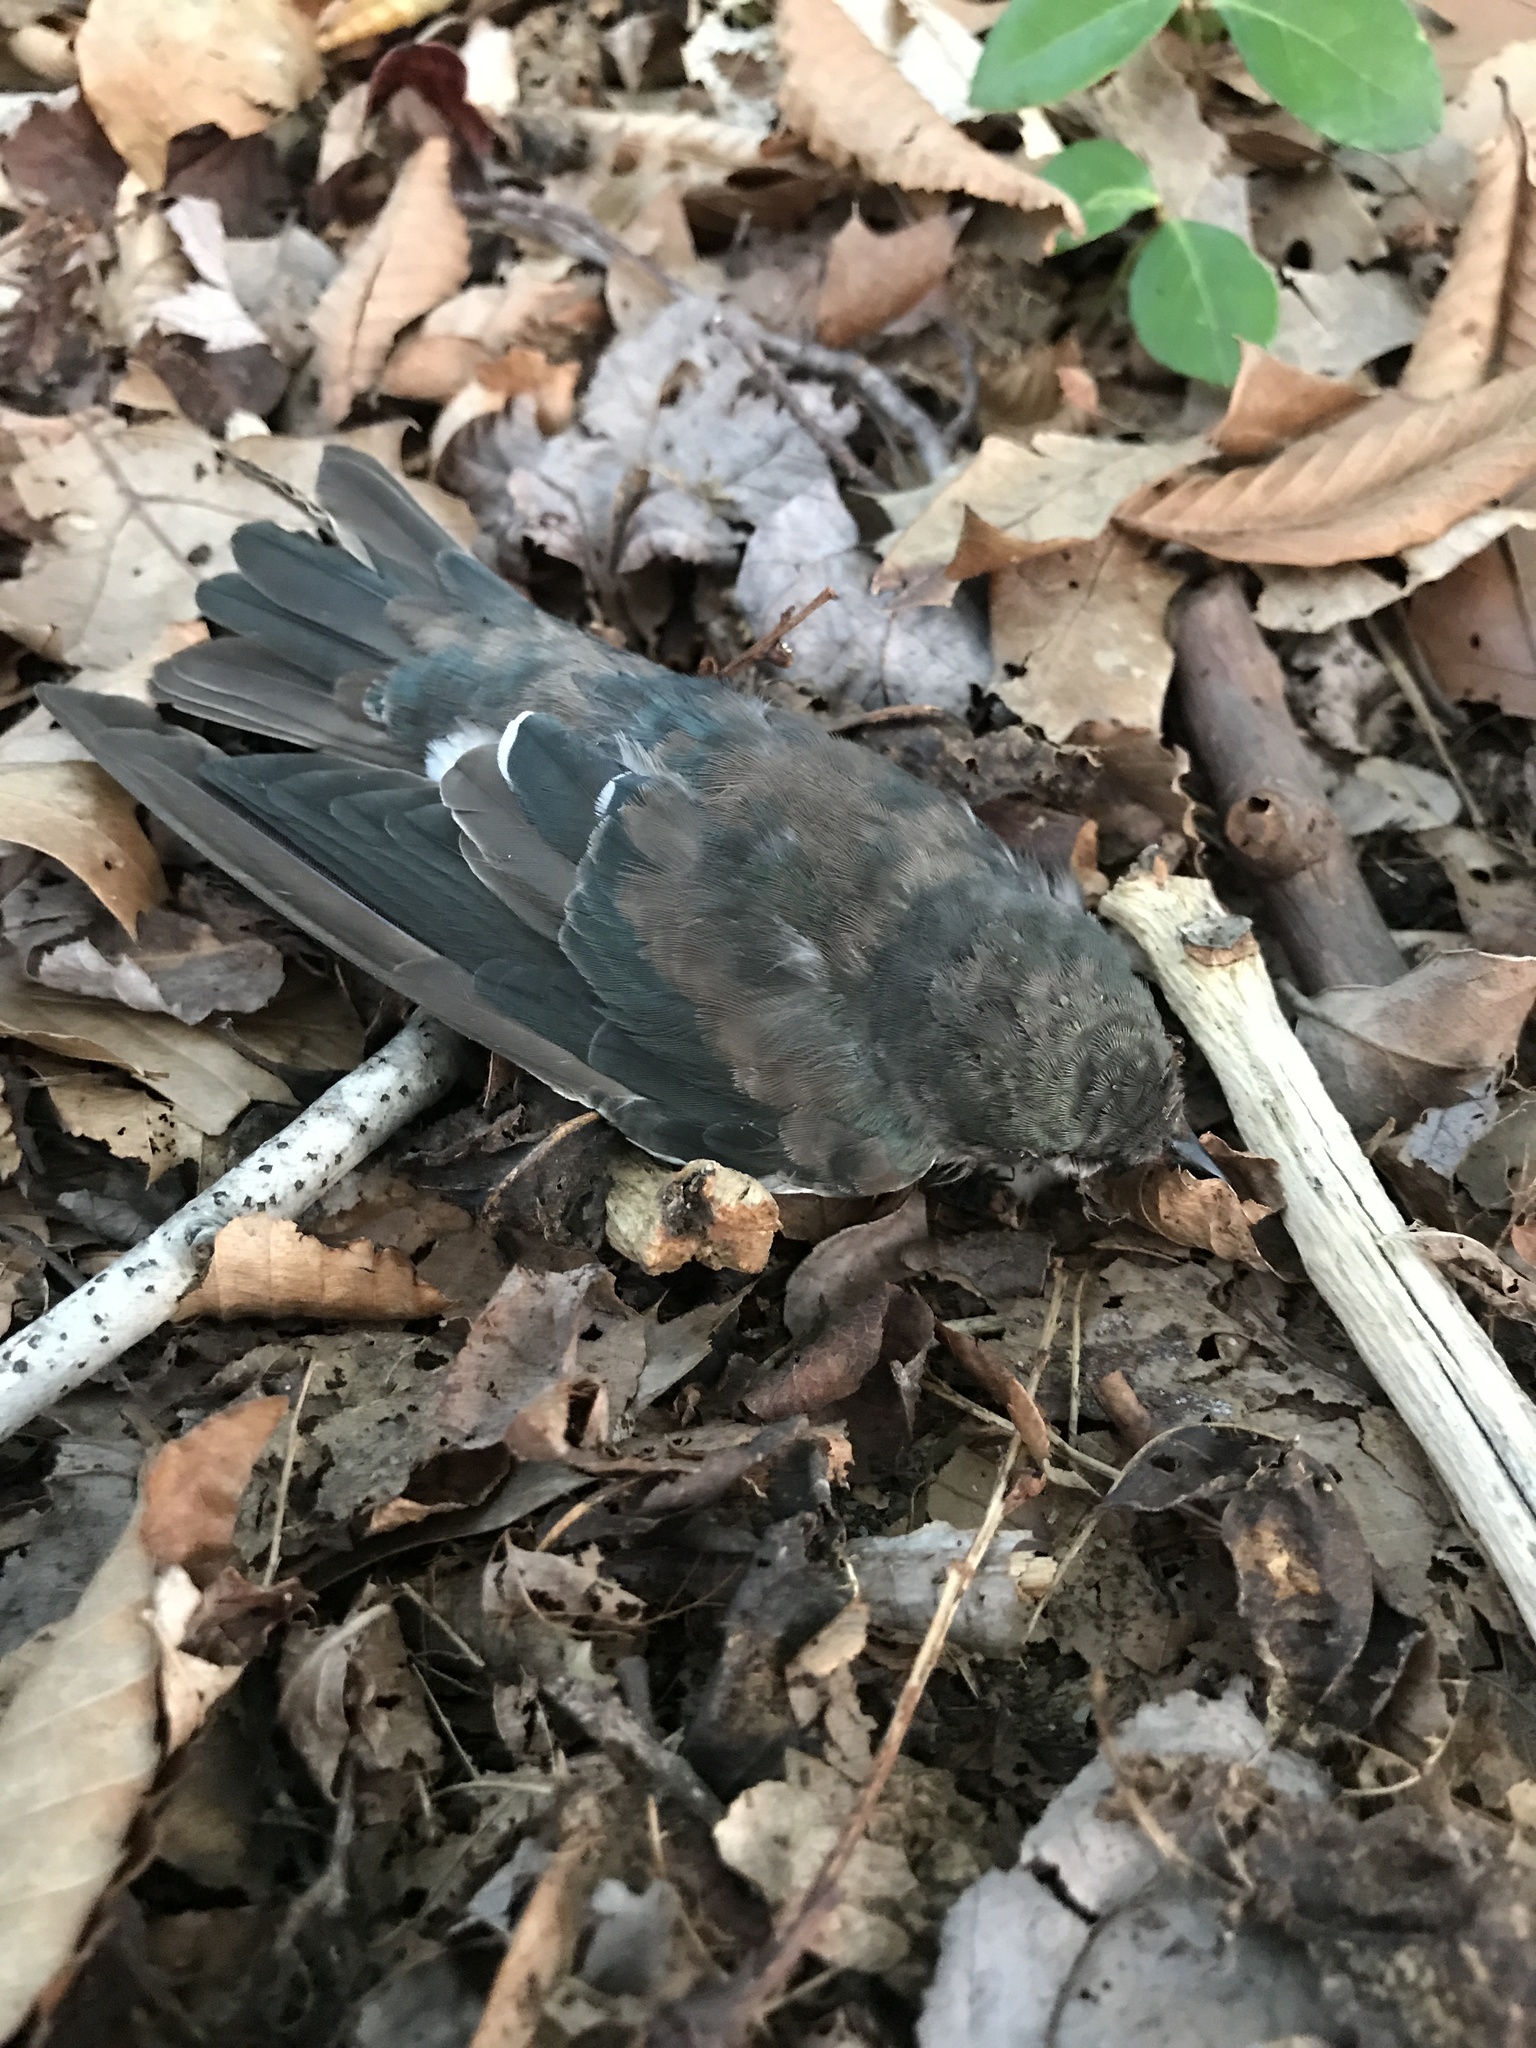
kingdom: Animalia
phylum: Chordata
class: Aves
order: Passeriformes
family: Hirundinidae
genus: Tachycineta
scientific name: Tachycineta bicolor
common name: Tree swallow
